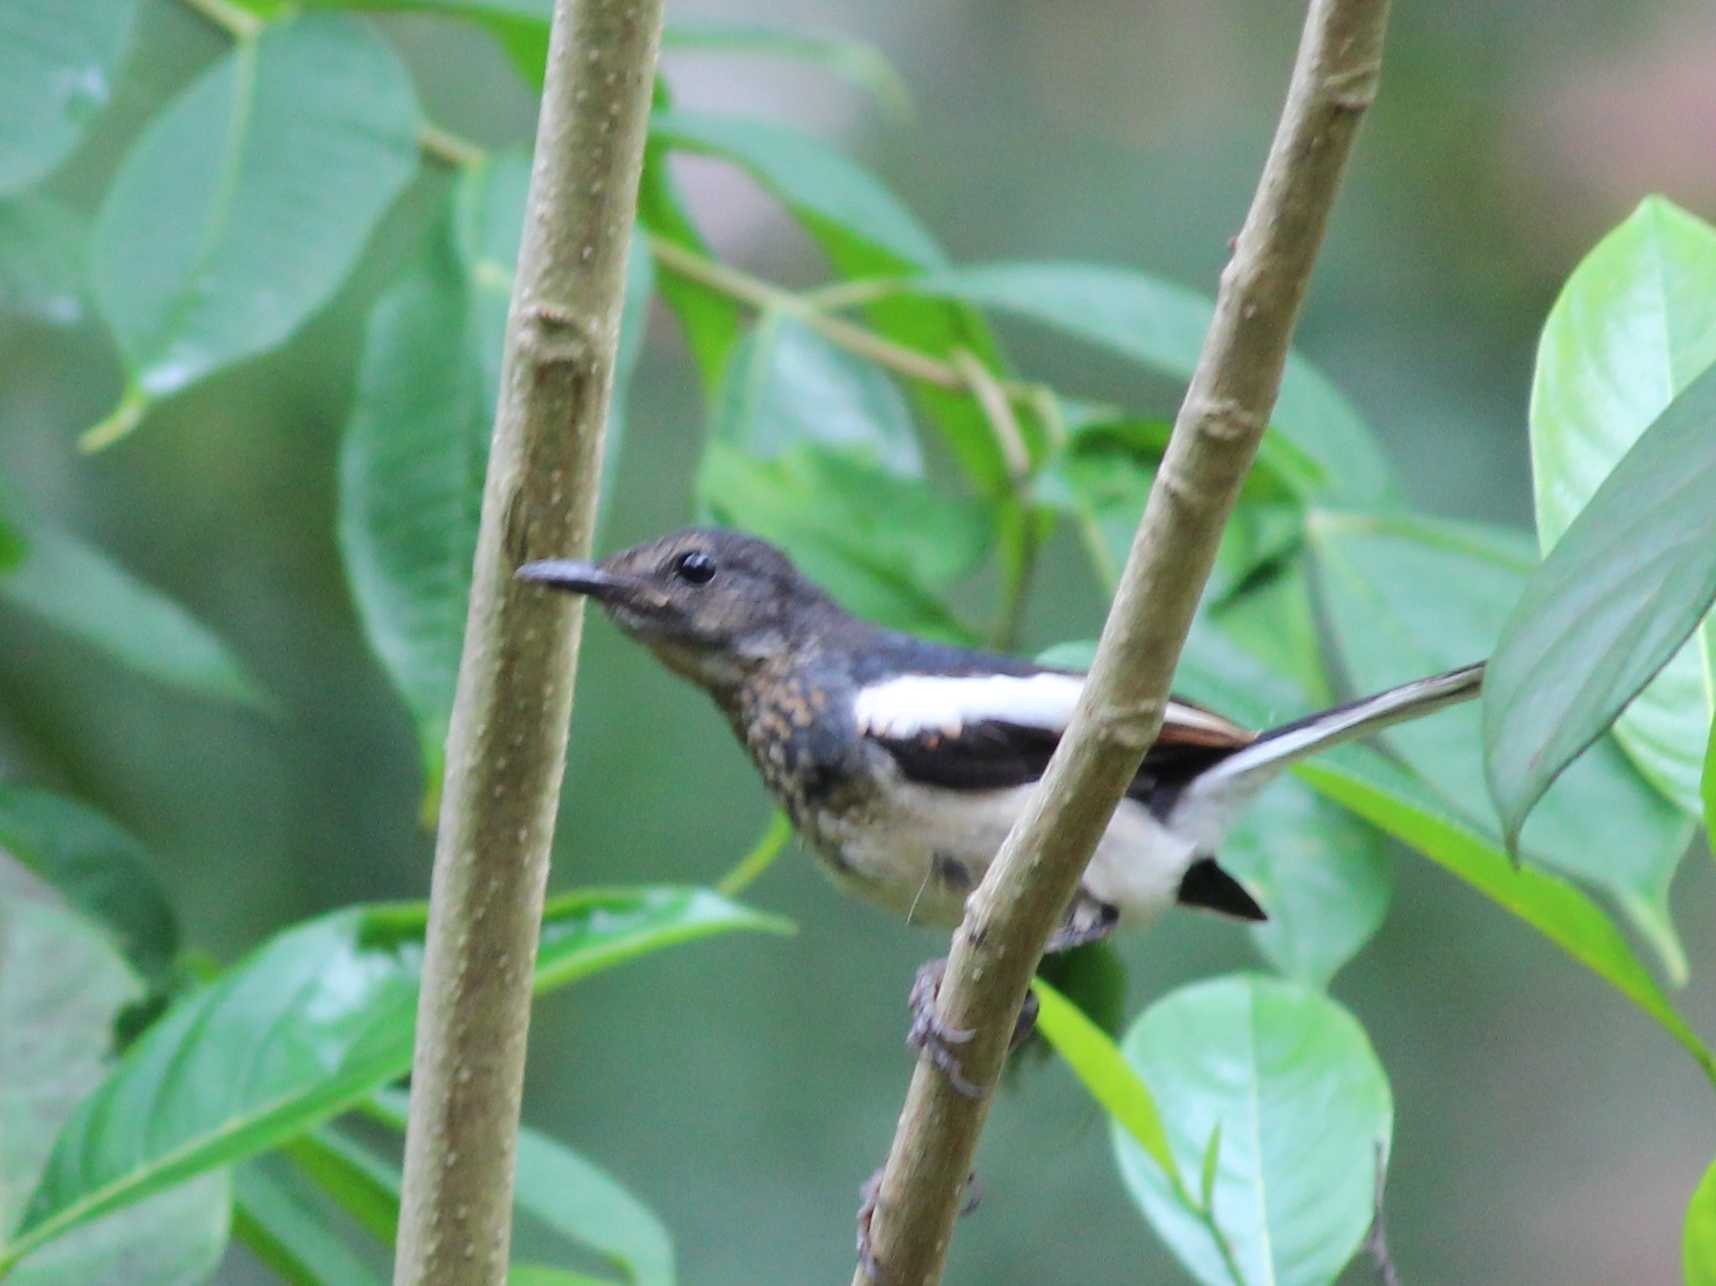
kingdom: Animalia
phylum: Chordata
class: Aves
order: Passeriformes
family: Muscicapidae
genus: Copsychus
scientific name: Copsychus saularis
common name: Oriental magpie-robin
